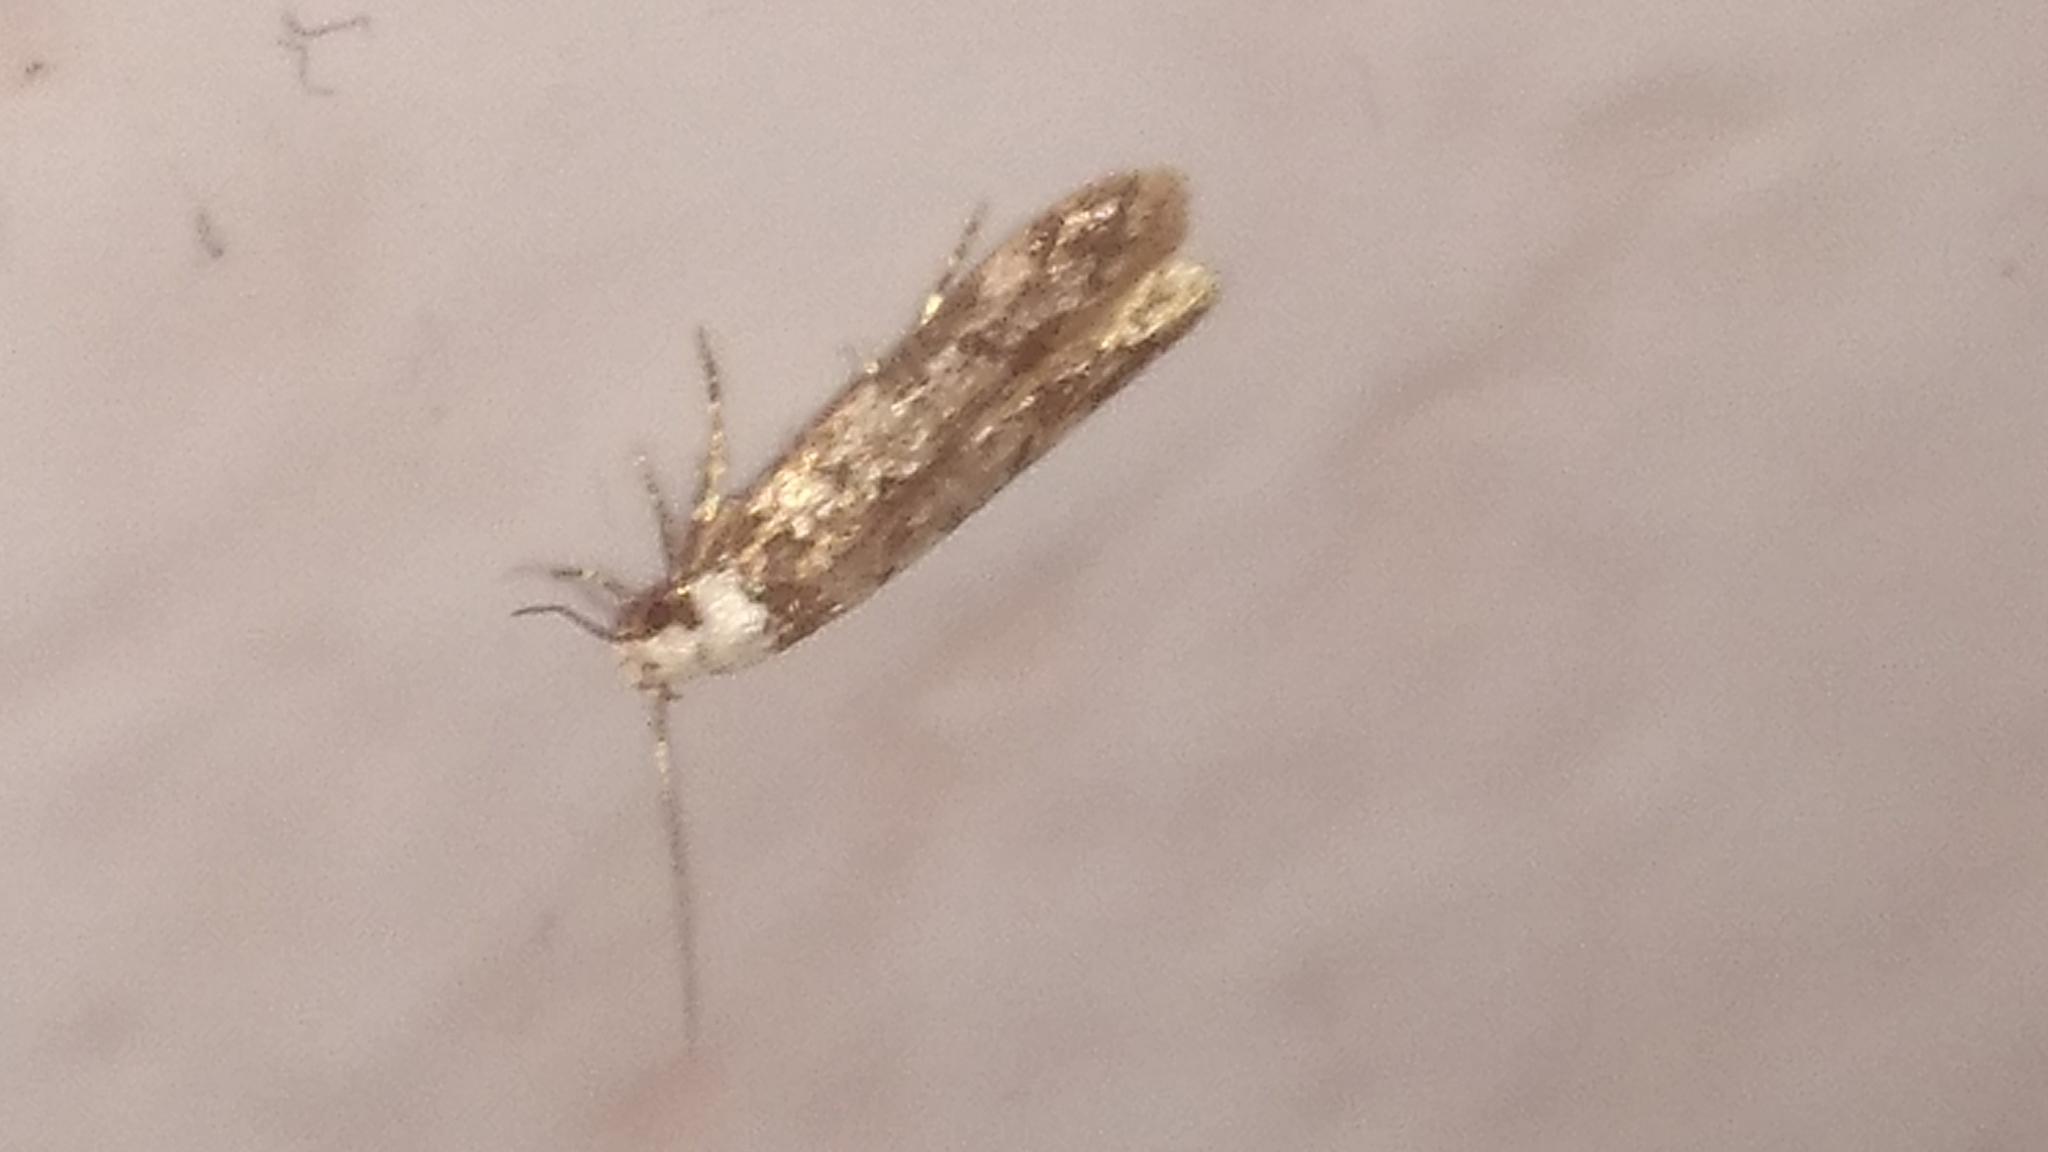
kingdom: Animalia
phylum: Arthropoda
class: Insecta
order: Lepidoptera
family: Oecophoridae
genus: Endrosis
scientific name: Endrosis sarcitrella
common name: White-shouldered house moth
